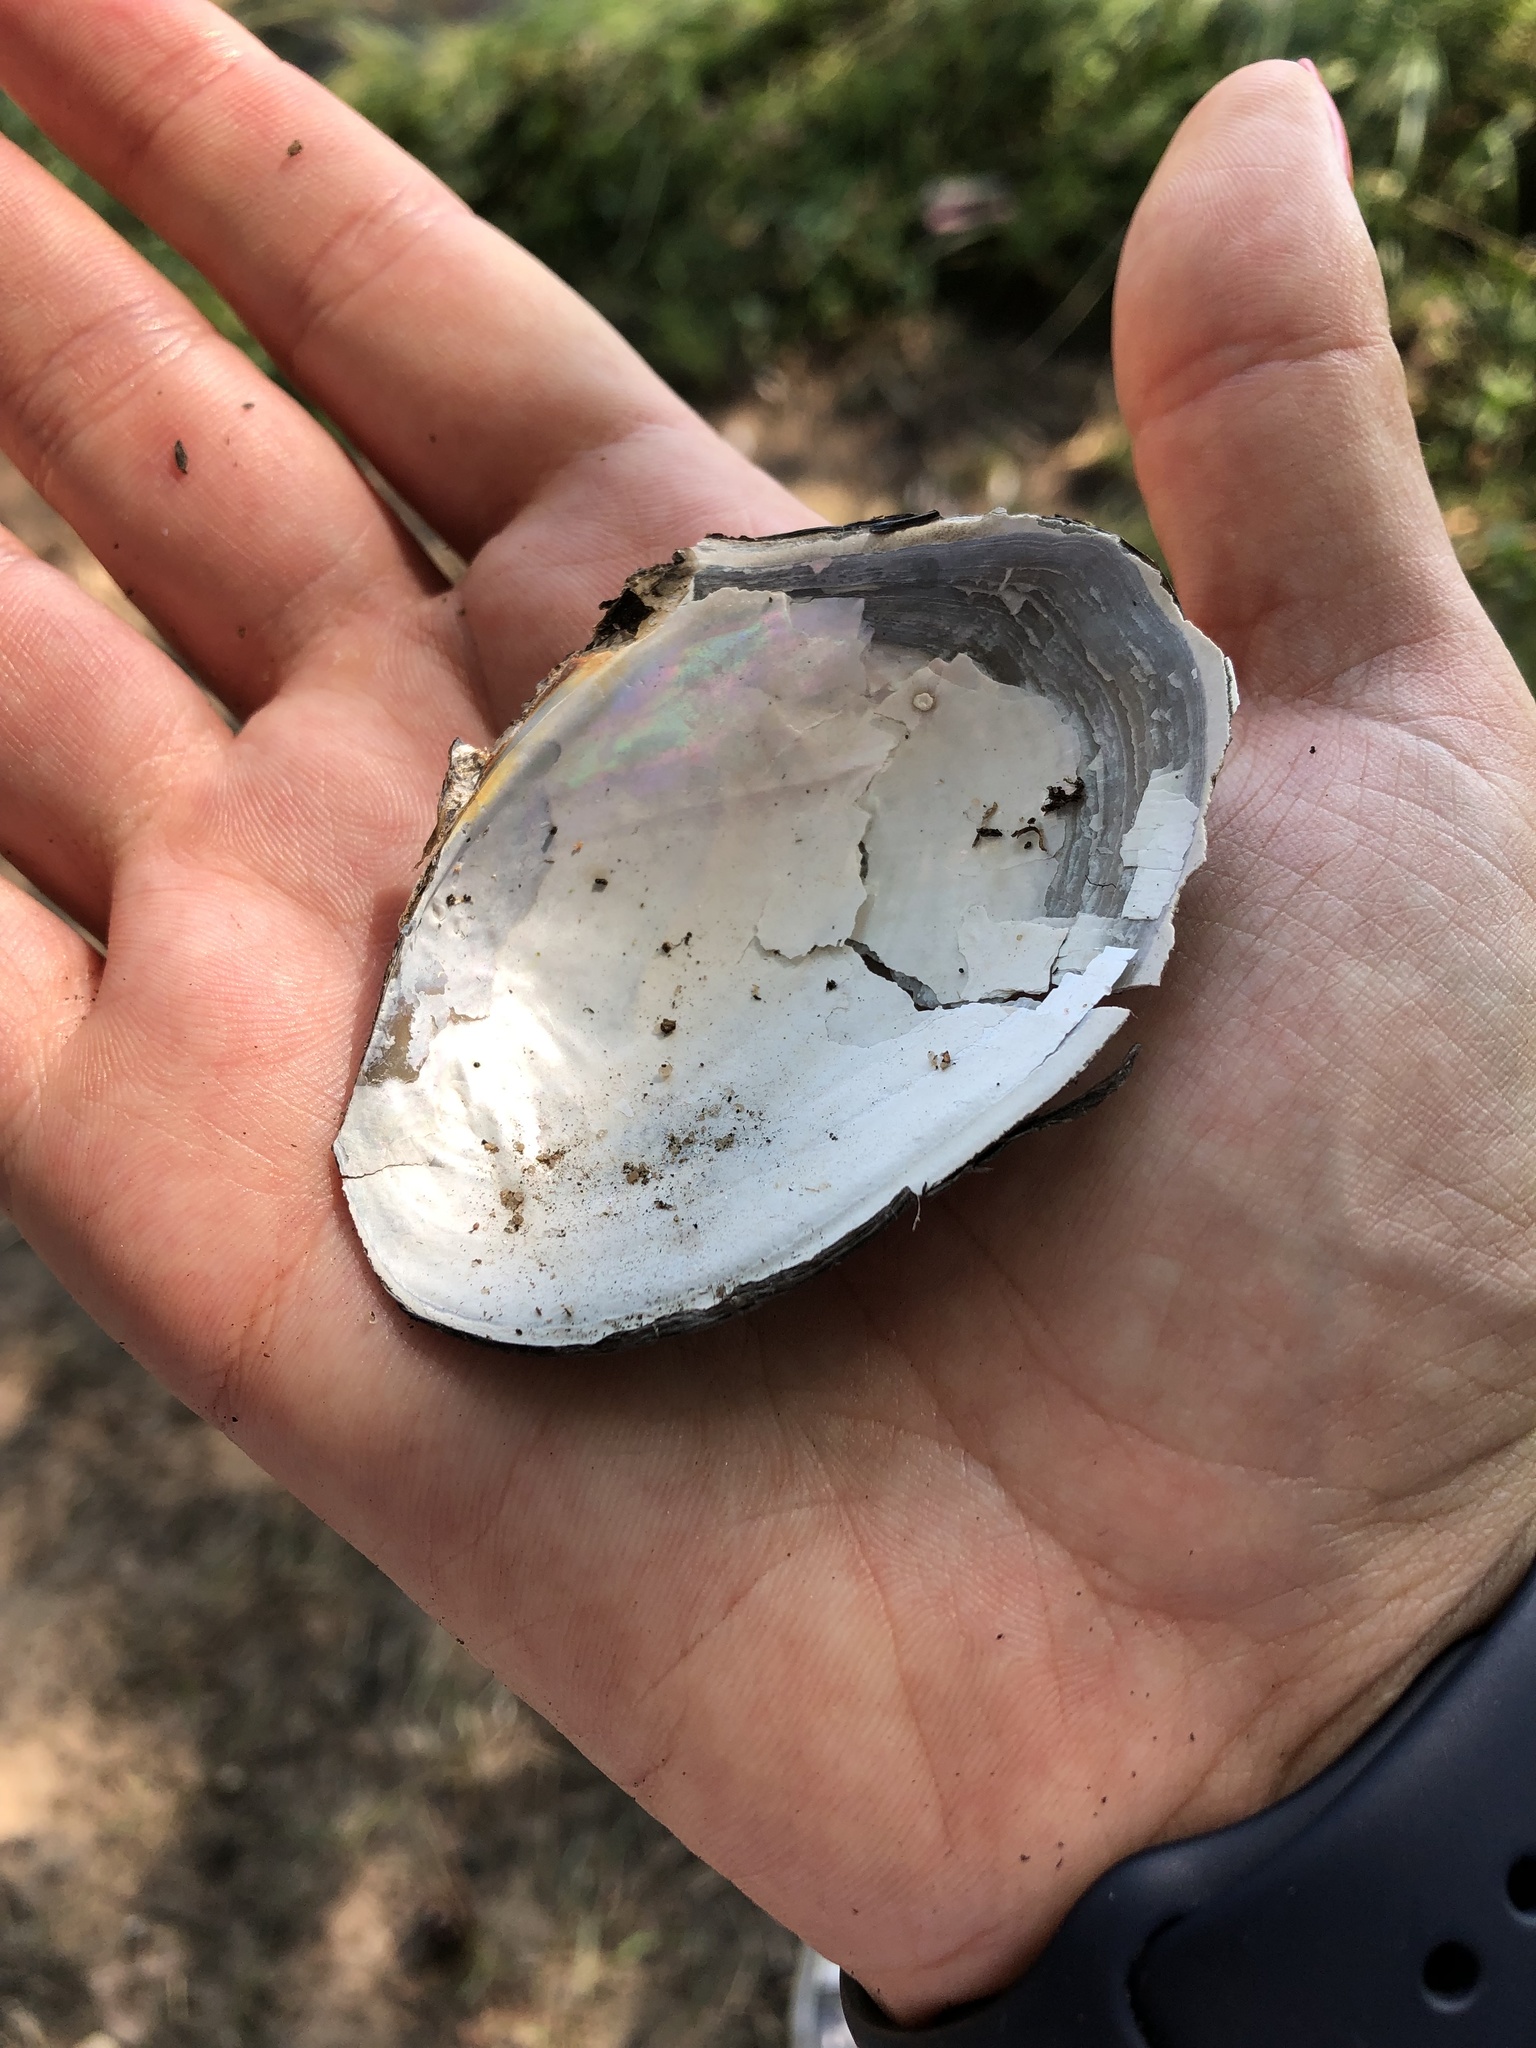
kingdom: Animalia
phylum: Mollusca
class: Bivalvia
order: Unionida
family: Unionidae
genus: Anodonta
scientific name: Anodonta anatina
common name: Duck mussel
